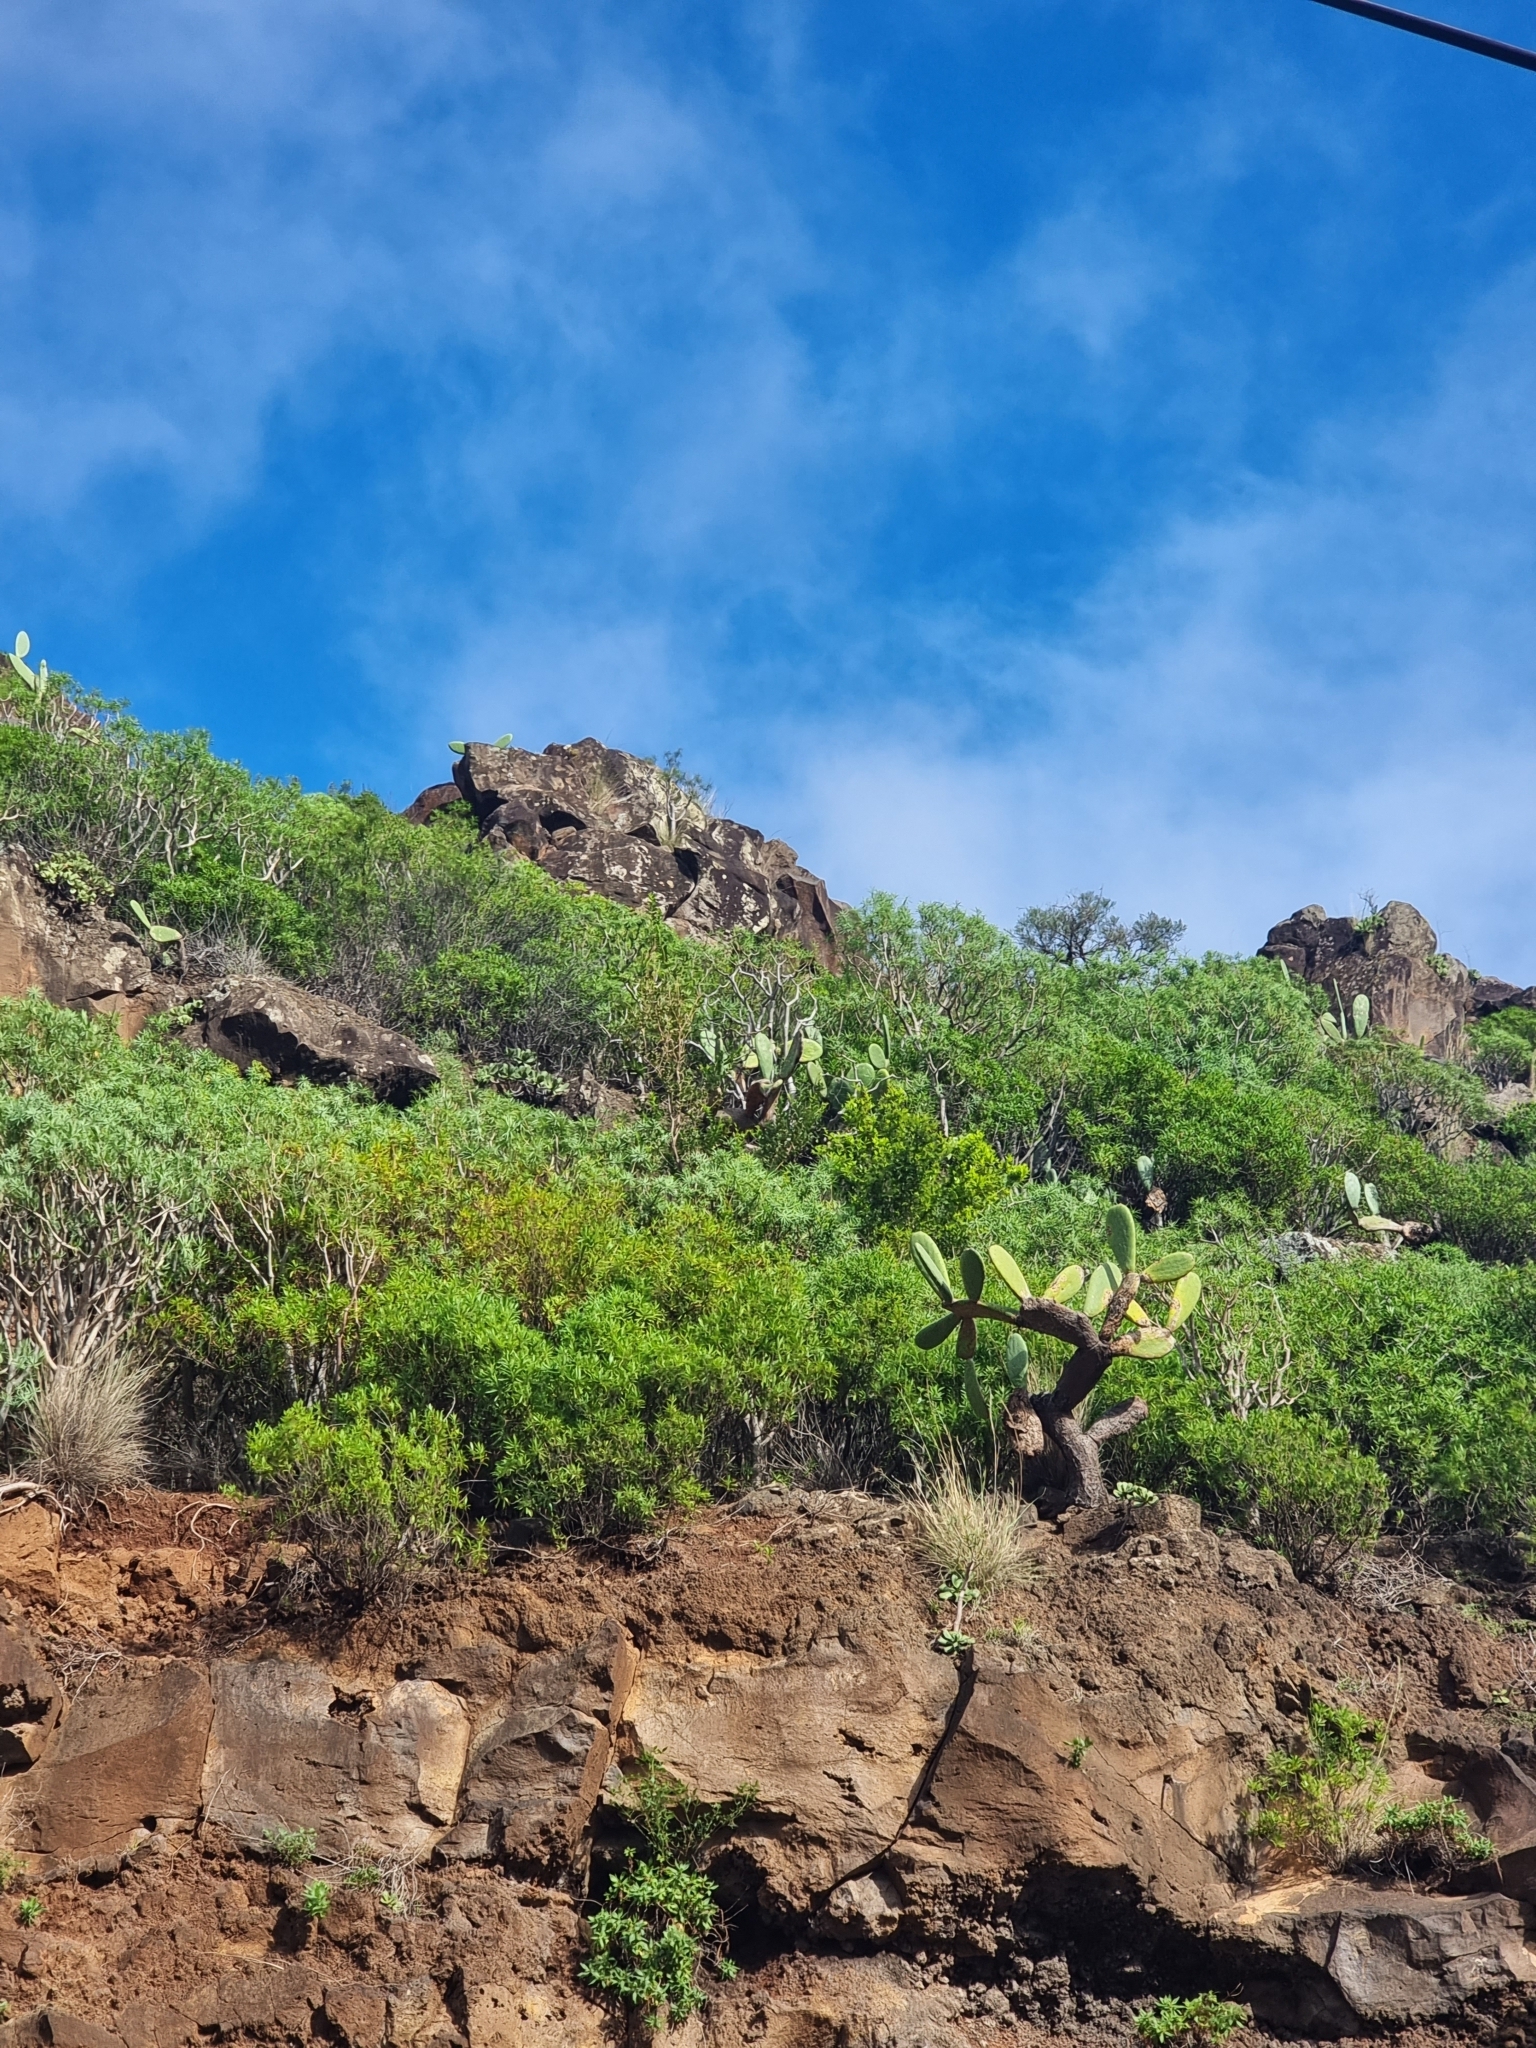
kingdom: Plantae
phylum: Tracheophyta
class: Magnoliopsida
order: Celastrales
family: Celastraceae
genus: Gymnosporia
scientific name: Gymnosporia dryandri
